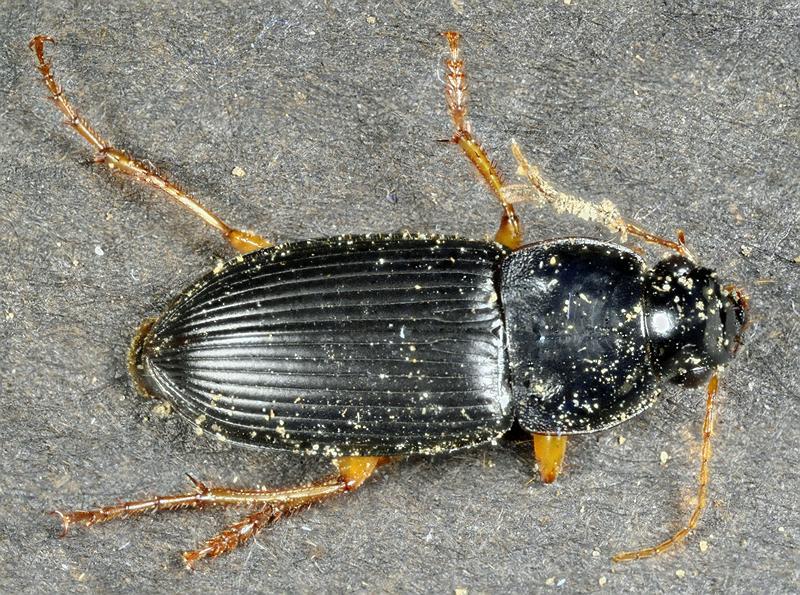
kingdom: Animalia
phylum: Arthropoda
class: Insecta
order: Coleoptera
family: Carabidae
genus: Harpalus
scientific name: Harpalus pensylvanicus
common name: Pennsylvania dingy ground beetle
